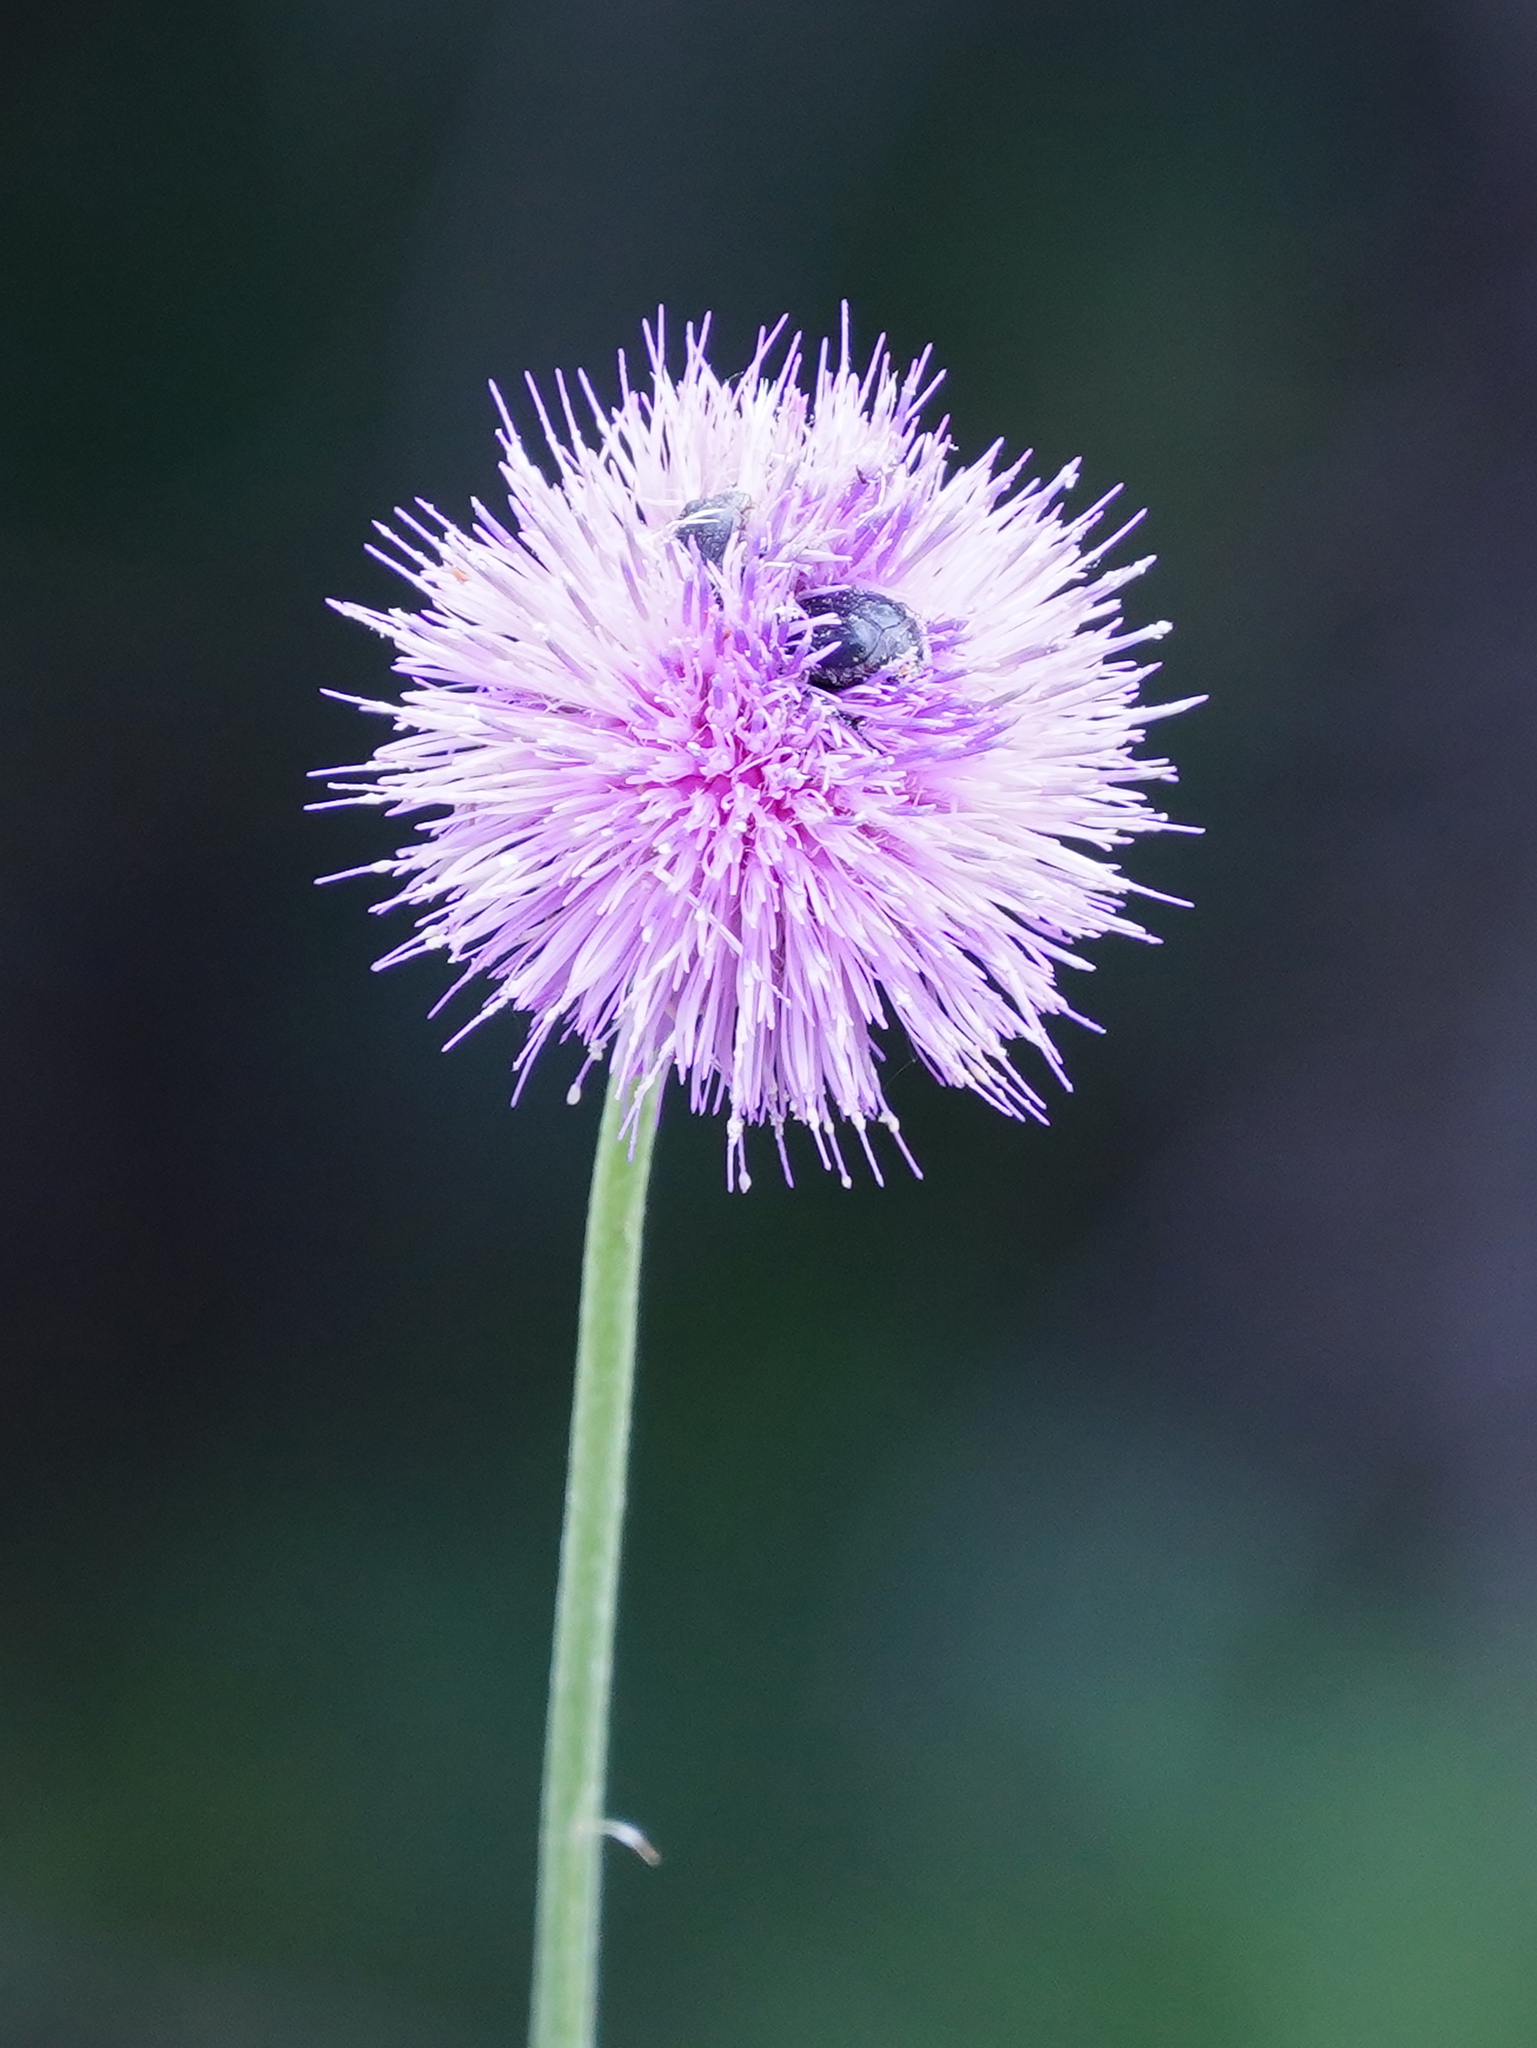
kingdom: Plantae
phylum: Tracheophyta
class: Magnoliopsida
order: Asterales
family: Asteraceae
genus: Cirsium
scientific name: Cirsium texanum
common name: Texas purple thistle
